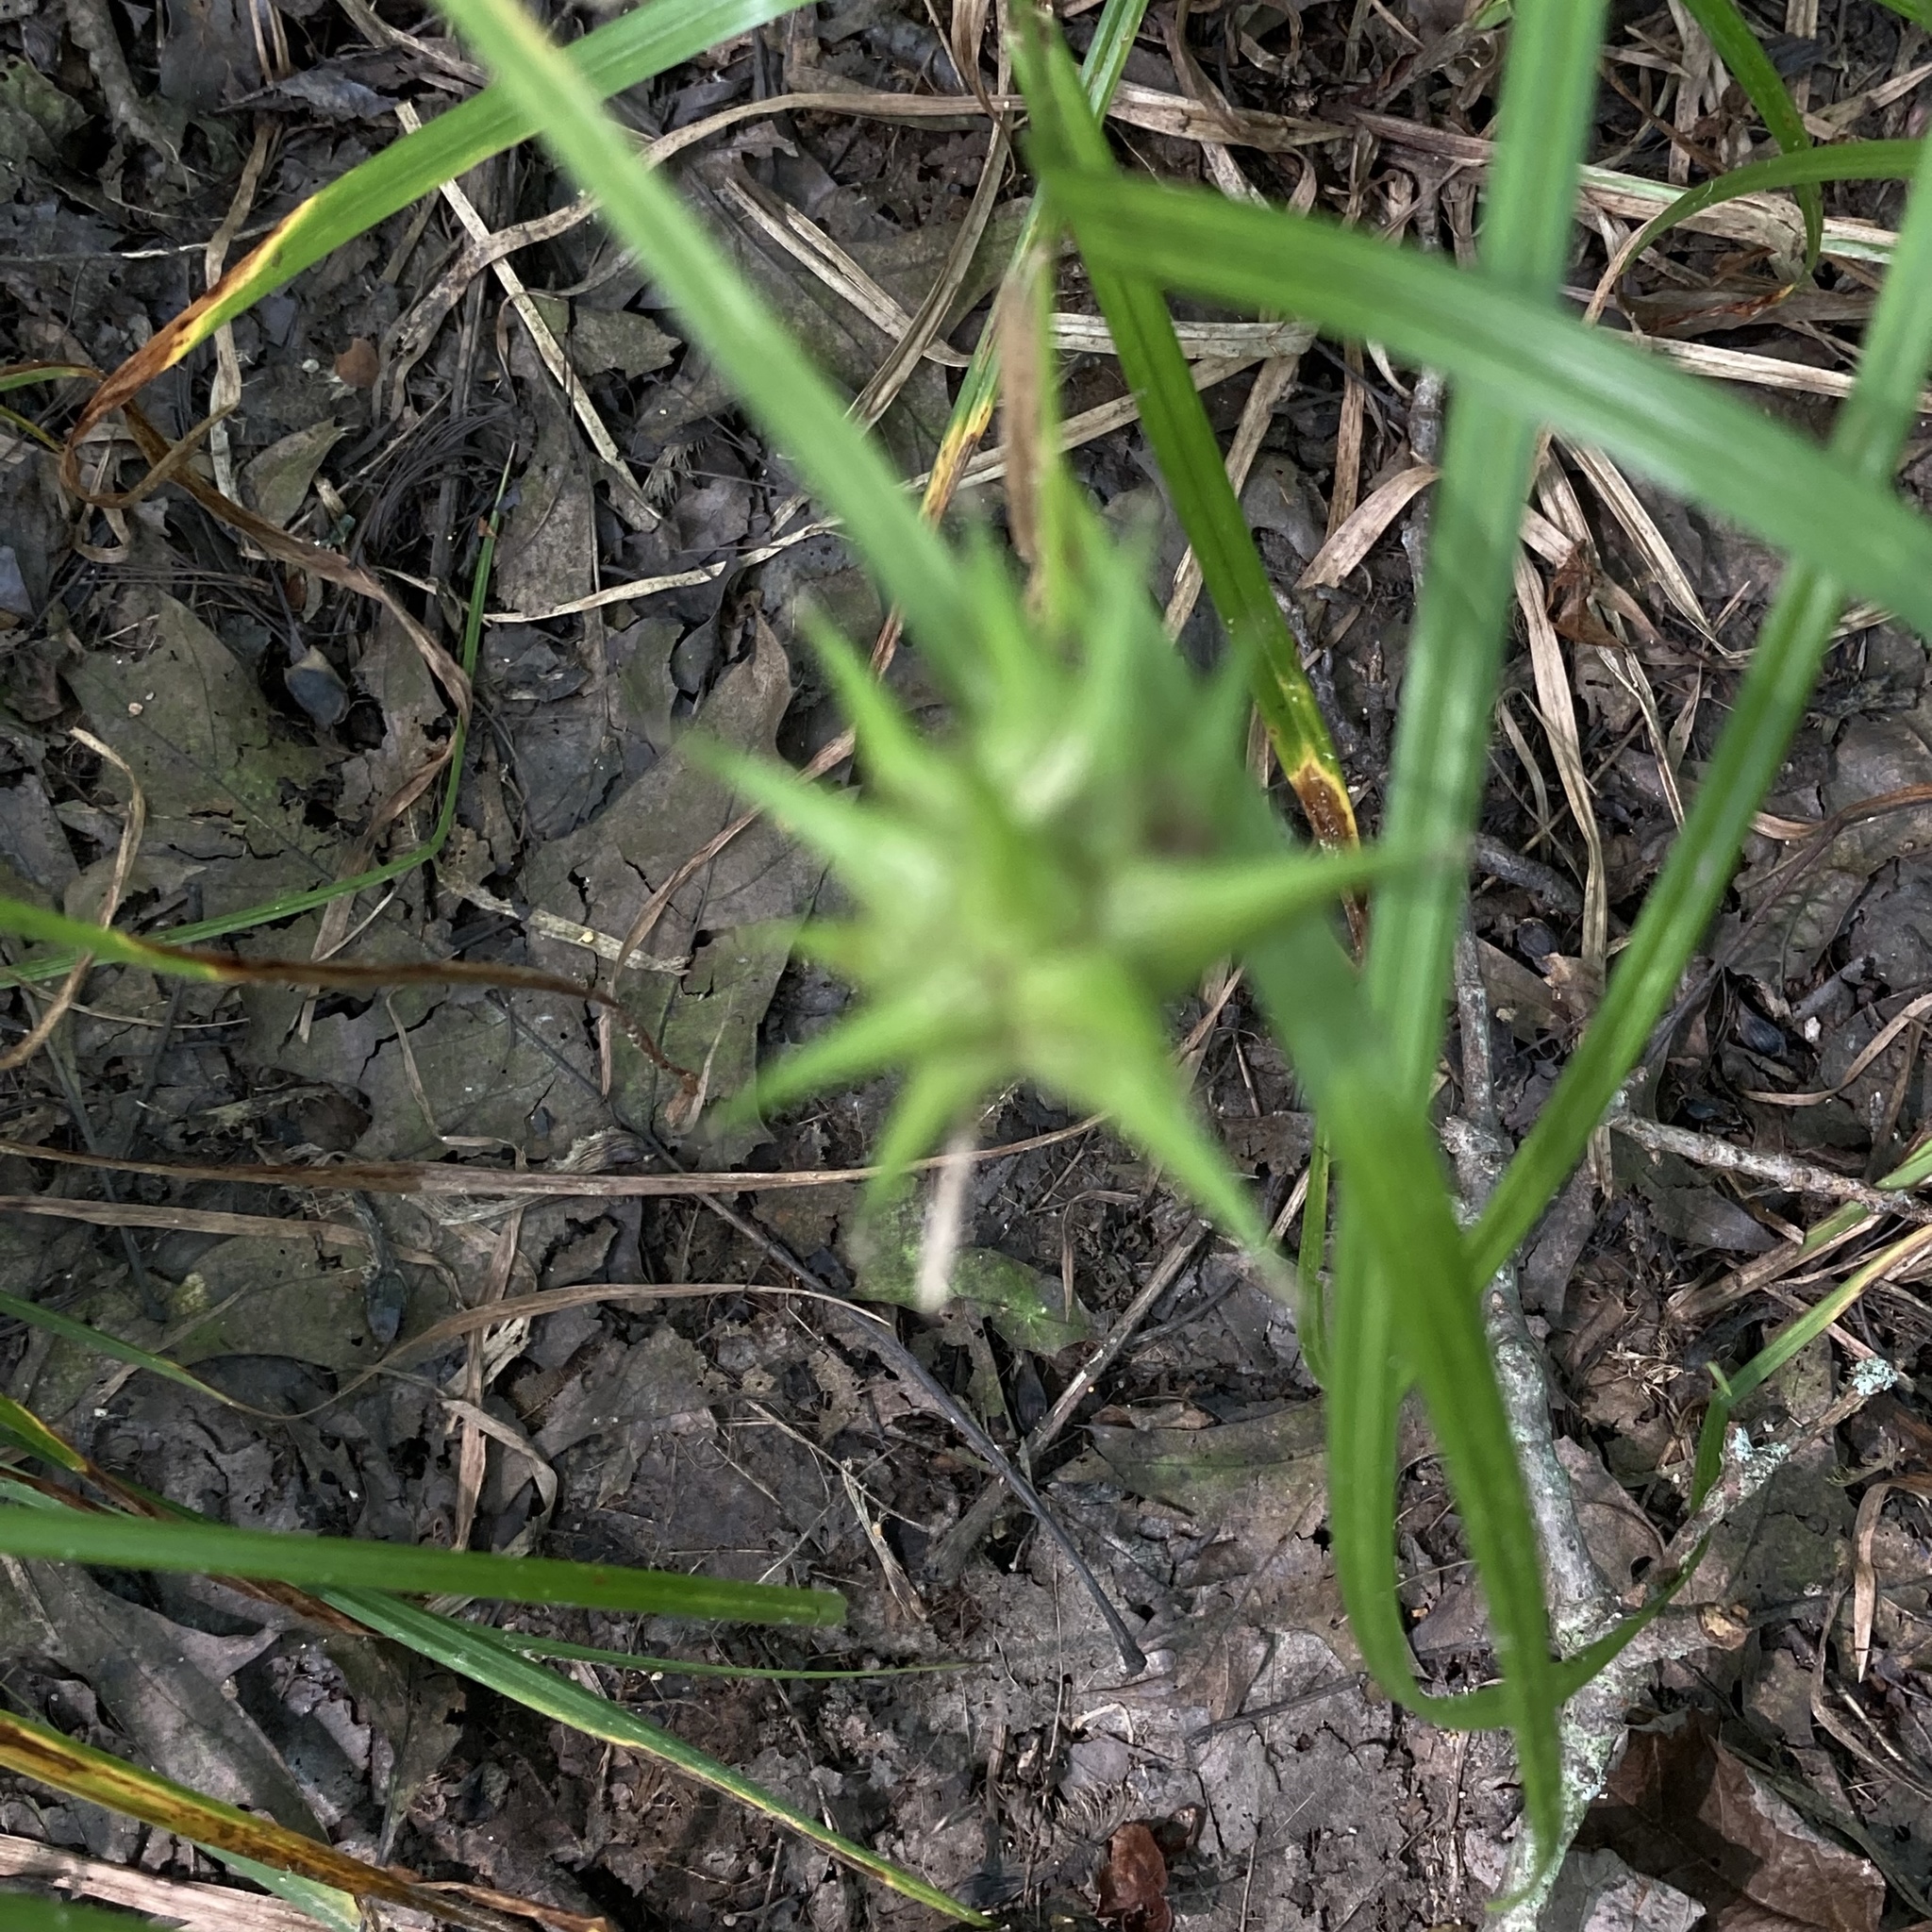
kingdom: Plantae
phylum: Tracheophyta
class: Liliopsida
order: Poales
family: Cyperaceae
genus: Carex
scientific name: Carex grayi
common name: Asa gray's sedge
